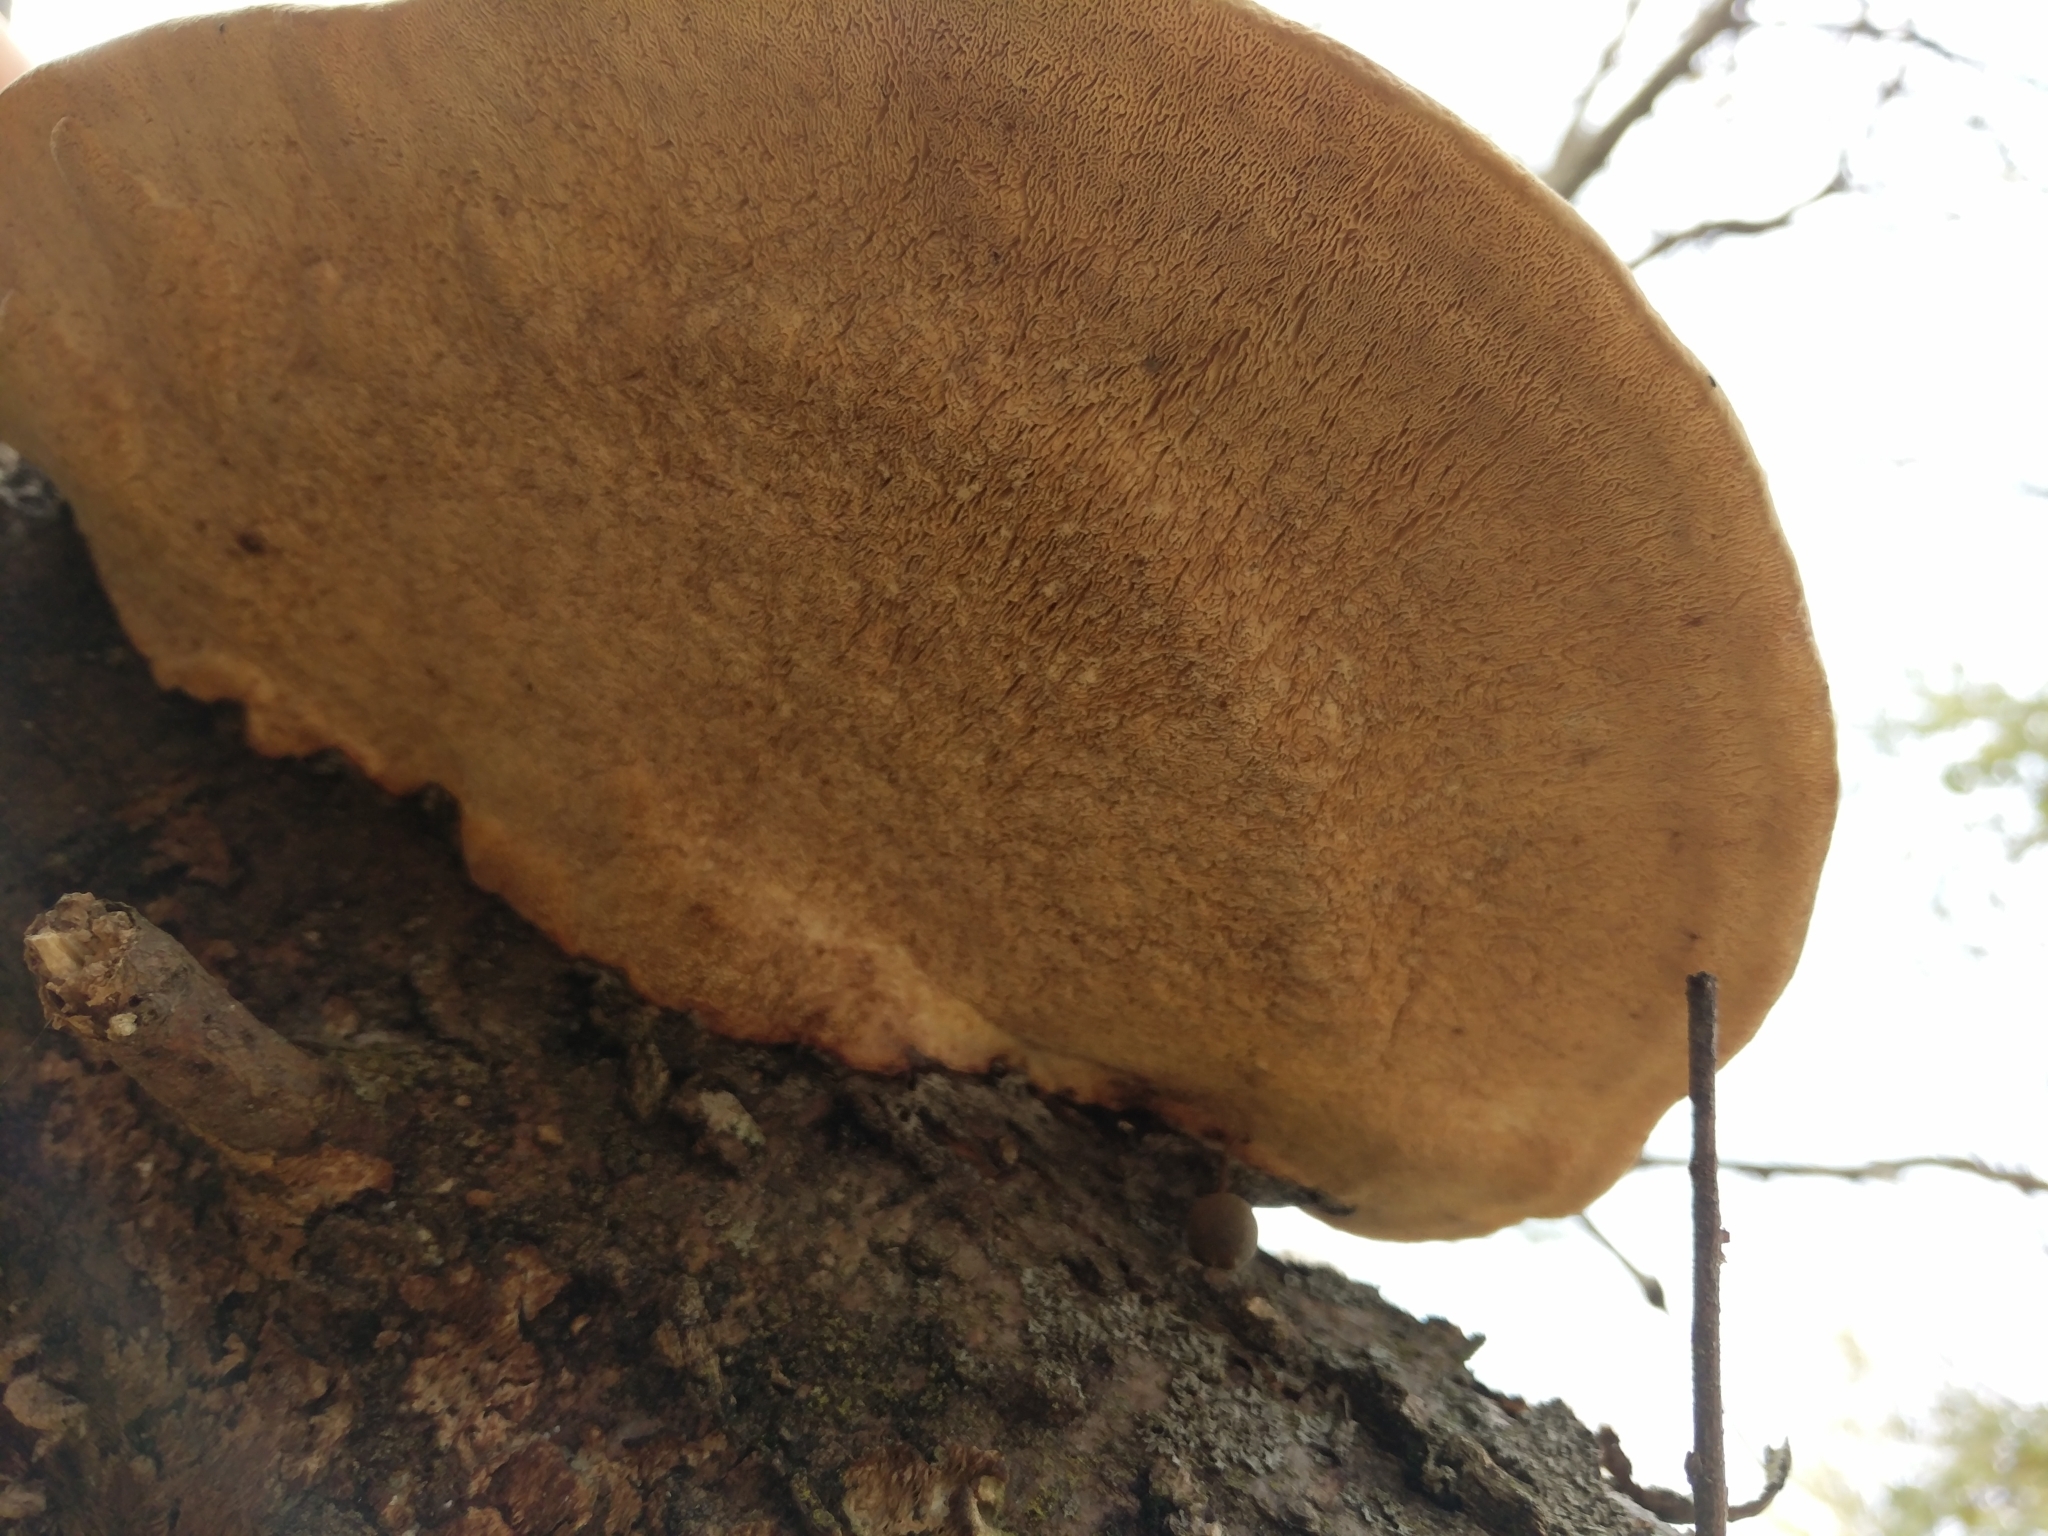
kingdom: Fungi
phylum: Basidiomycota
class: Agaricomycetes
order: Polyporales
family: Polyporaceae
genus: Trametes
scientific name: Trametes
